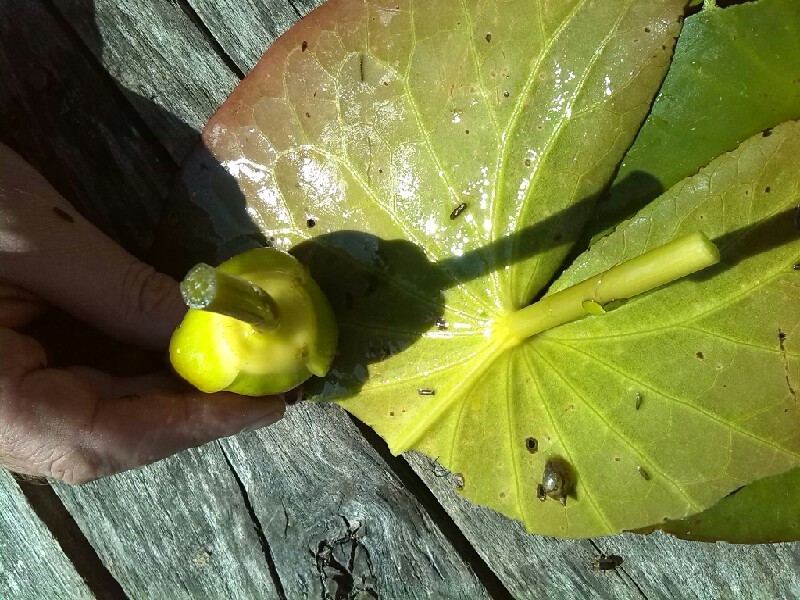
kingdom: Plantae
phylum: Tracheophyta
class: Magnoliopsida
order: Nymphaeales
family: Nymphaeaceae
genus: Nymphaea
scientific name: Nymphaea candida
